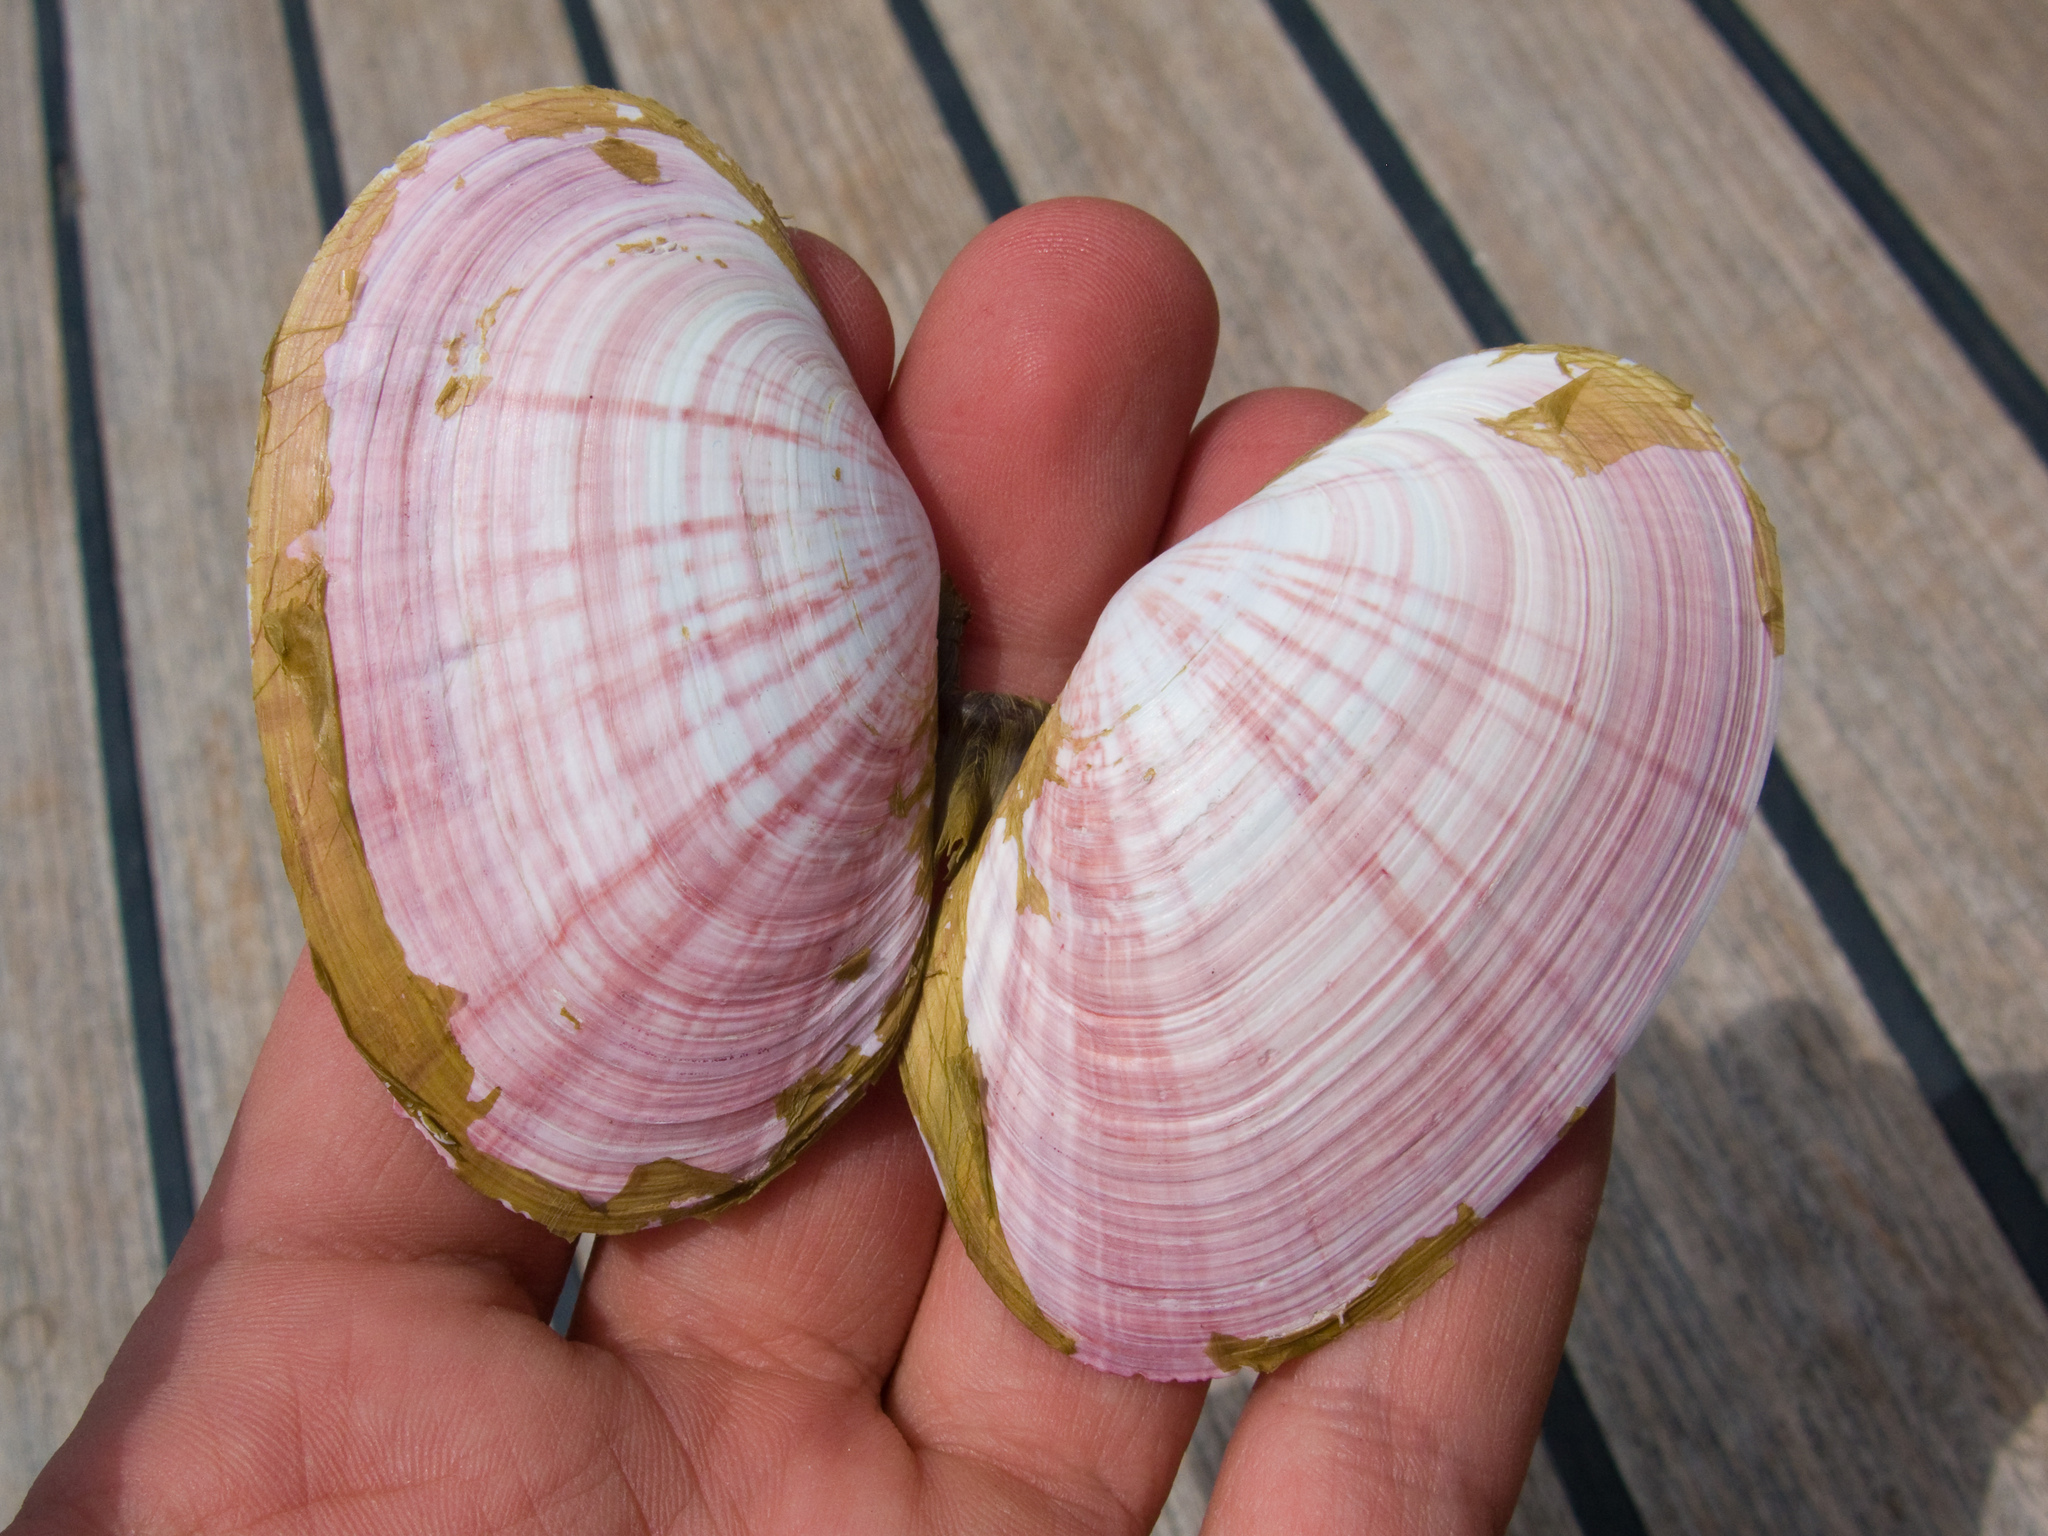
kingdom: Animalia
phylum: Mollusca
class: Bivalvia
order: Cardiida
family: Psammobiidae
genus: Gari
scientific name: Gari californica
